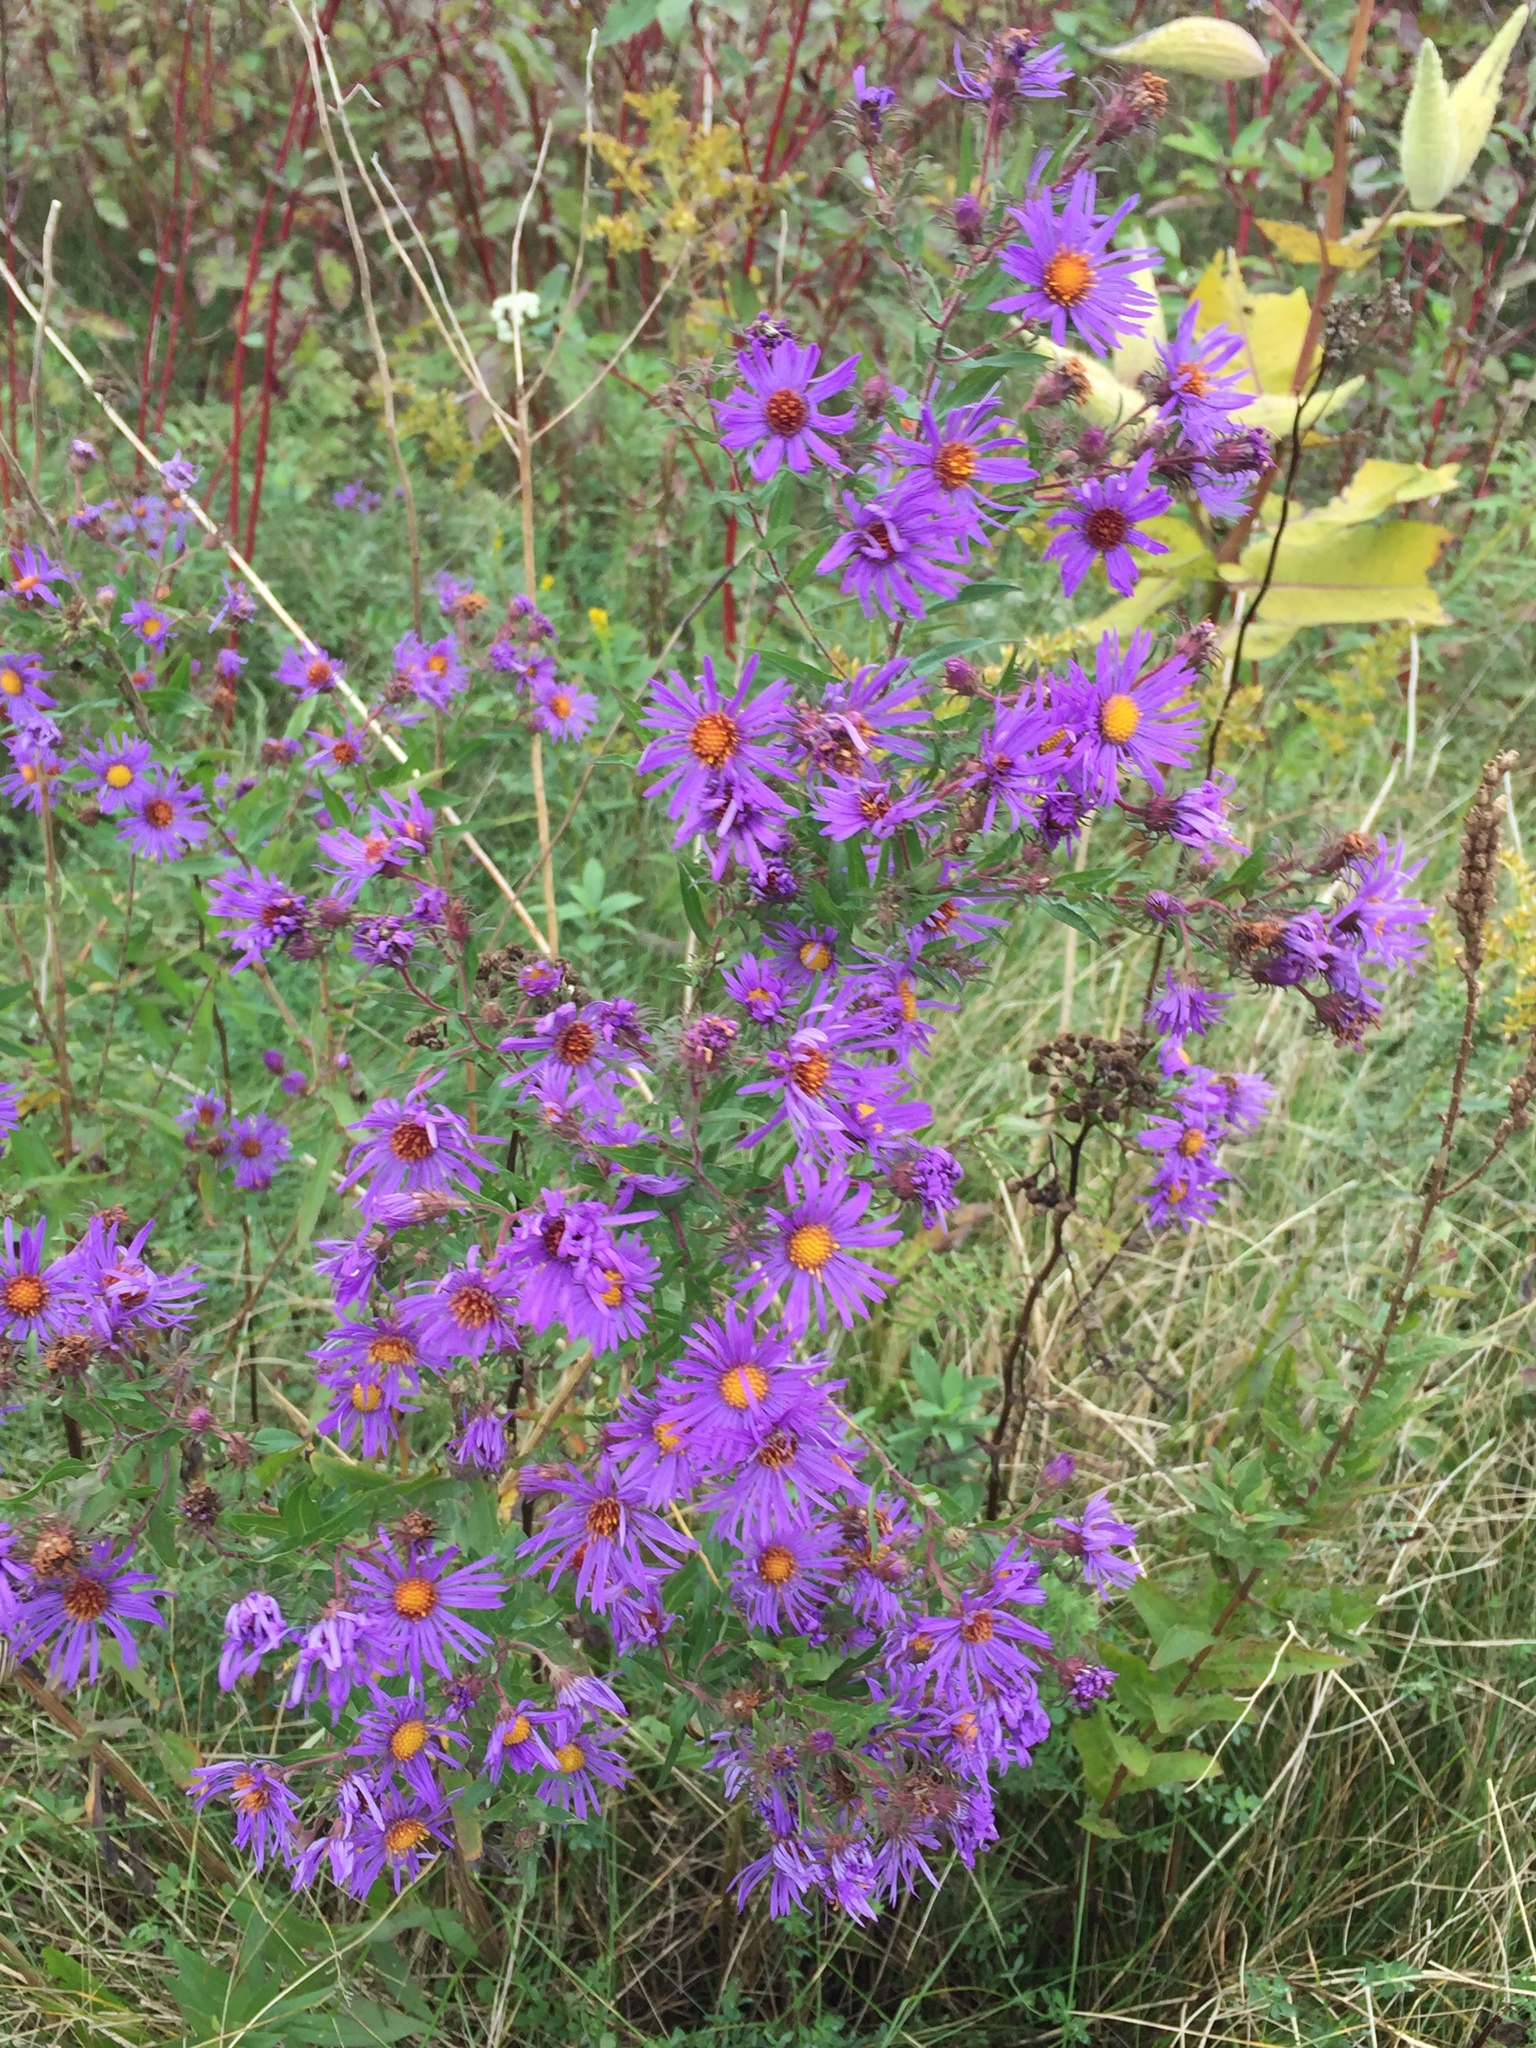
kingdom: Plantae
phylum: Tracheophyta
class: Magnoliopsida
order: Asterales
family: Asteraceae
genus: Symphyotrichum
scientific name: Symphyotrichum novae-angliae
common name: Michaelmas daisy
